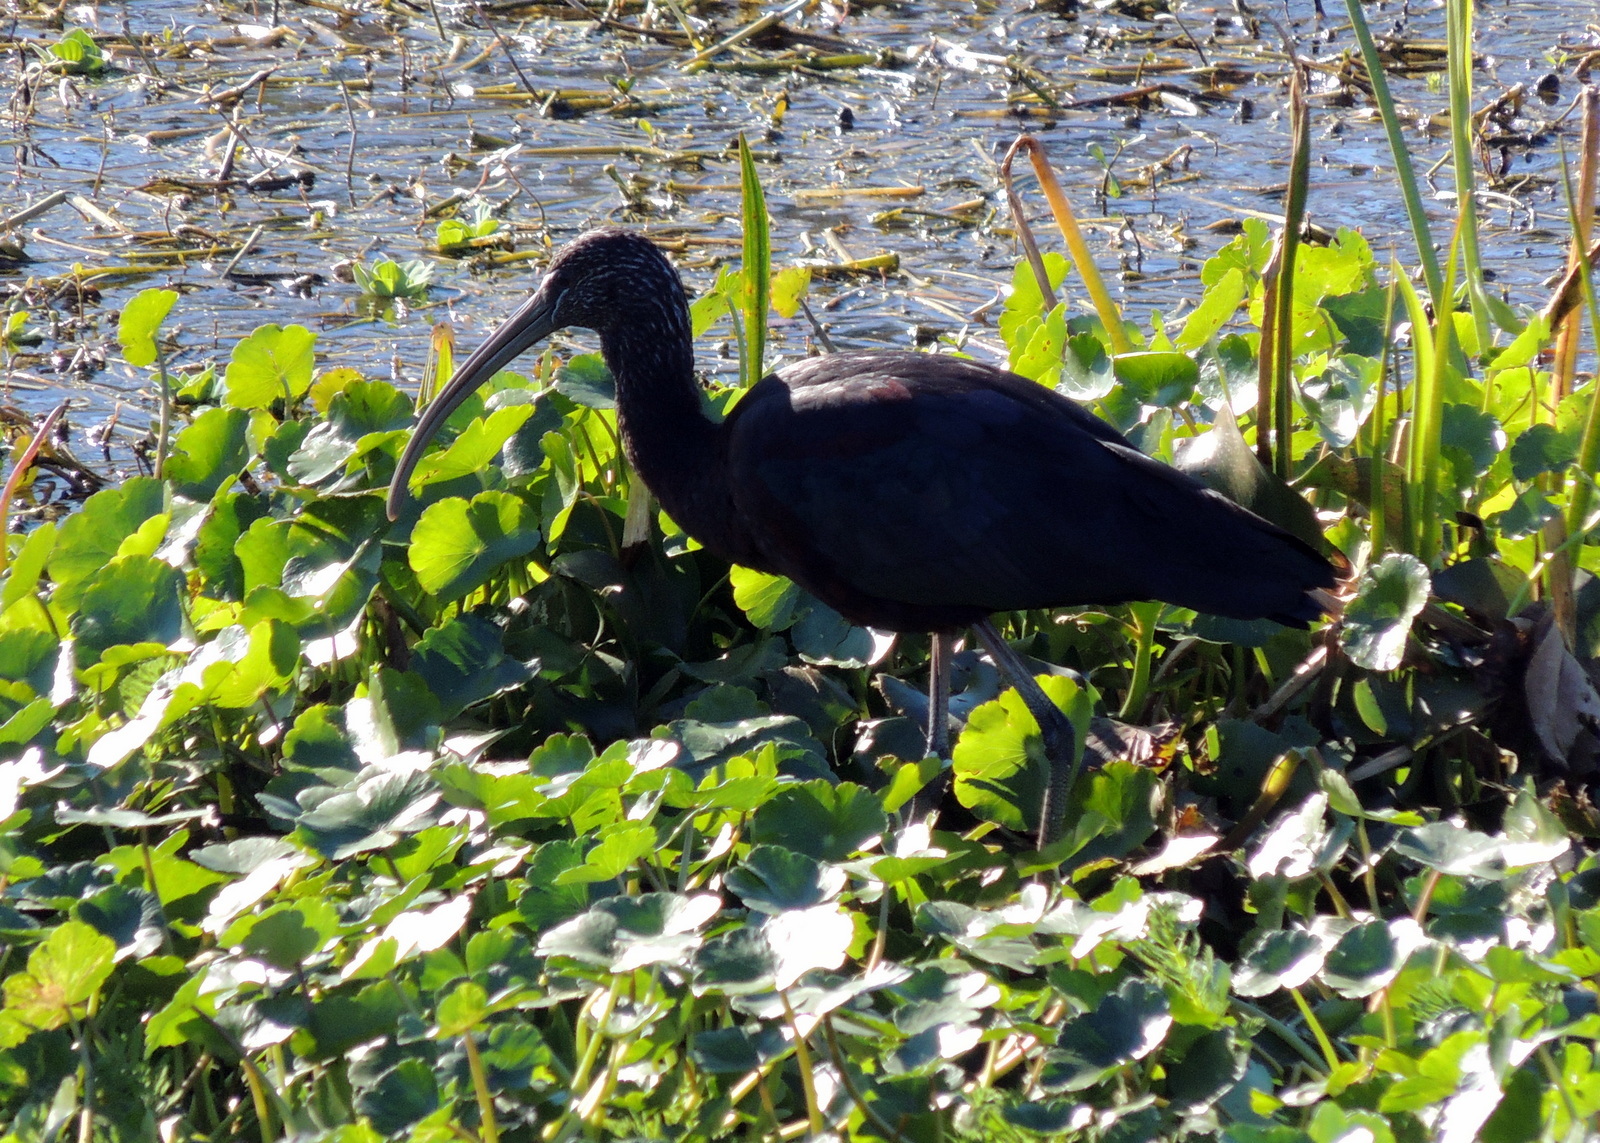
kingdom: Animalia
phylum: Chordata
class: Aves
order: Pelecaniformes
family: Threskiornithidae
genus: Plegadis
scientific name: Plegadis falcinellus
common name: Glossy ibis
